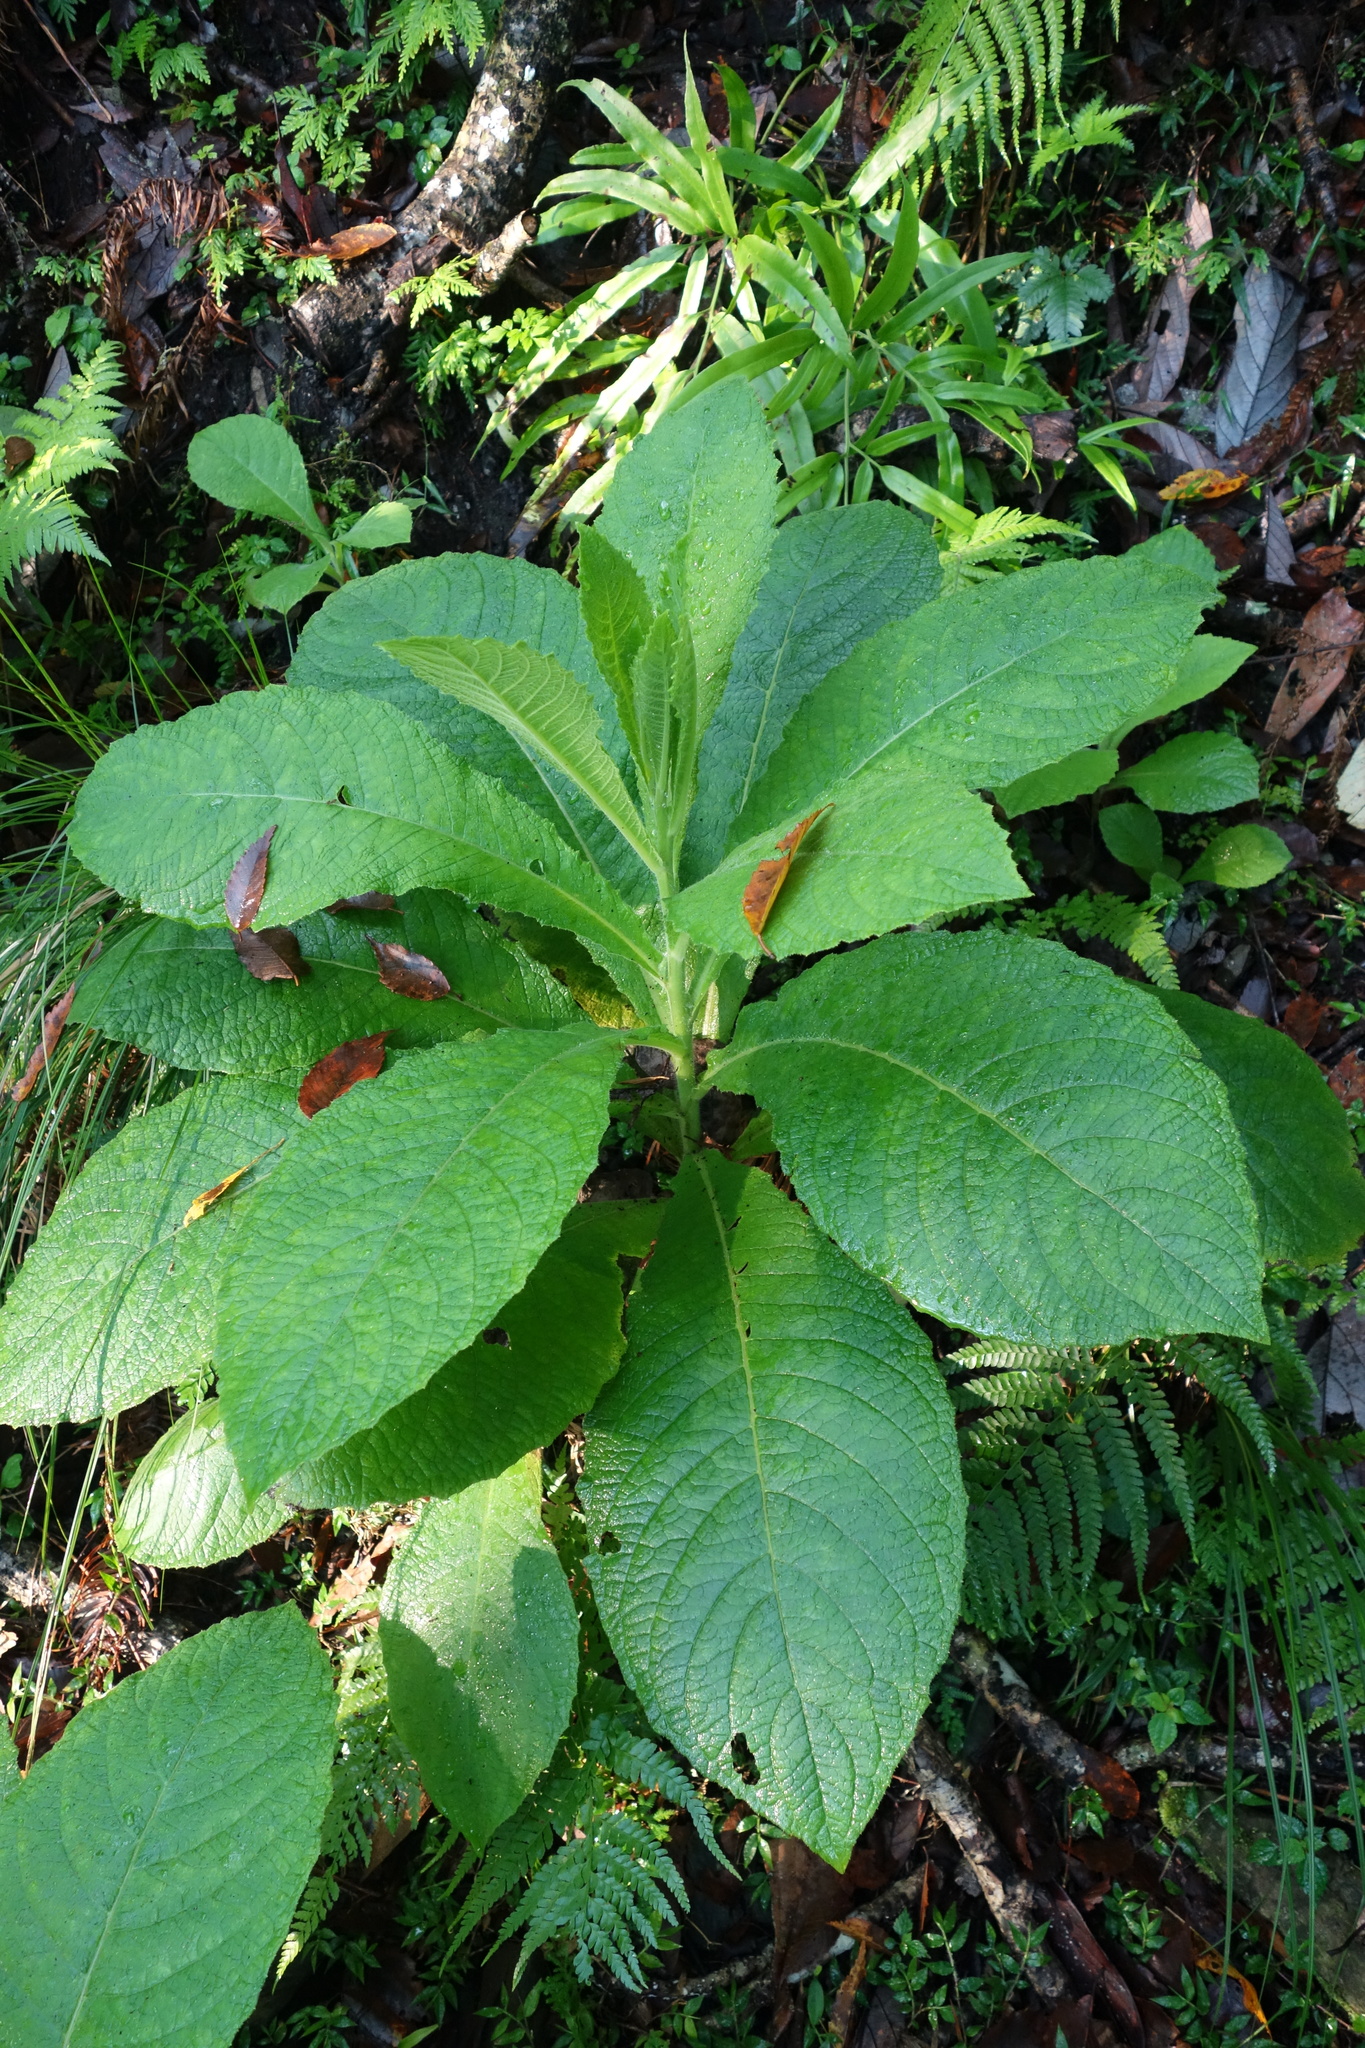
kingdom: Plantae
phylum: Tracheophyta
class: Magnoliopsida
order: Asterales
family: Asteraceae
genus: Blumea
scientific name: Blumea aromatica
